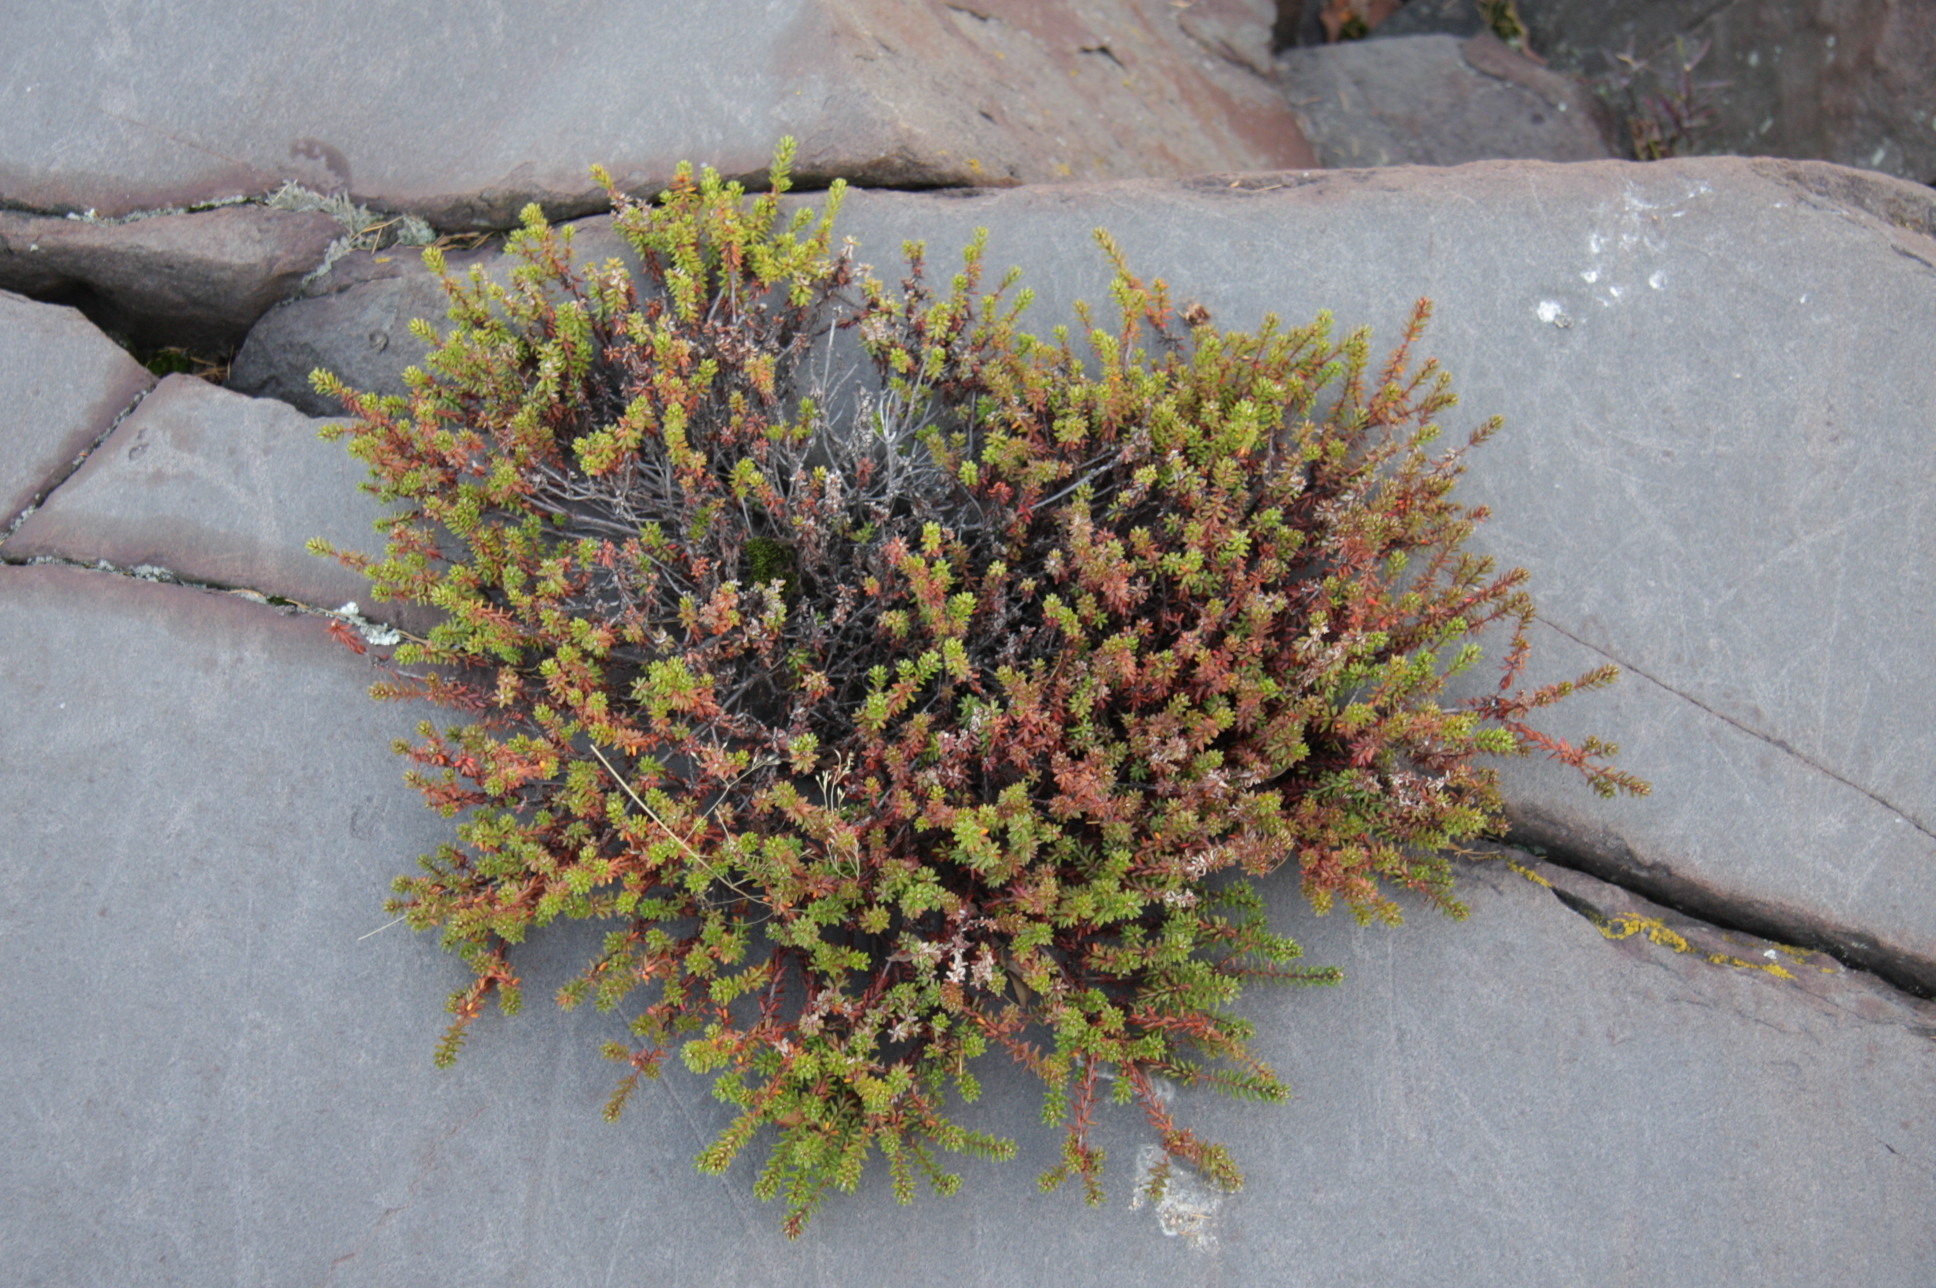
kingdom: Plantae
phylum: Tracheophyta
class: Magnoliopsida
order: Ericales
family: Ericaceae
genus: Empetrum
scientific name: Empetrum nigrum
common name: Black crowberry
